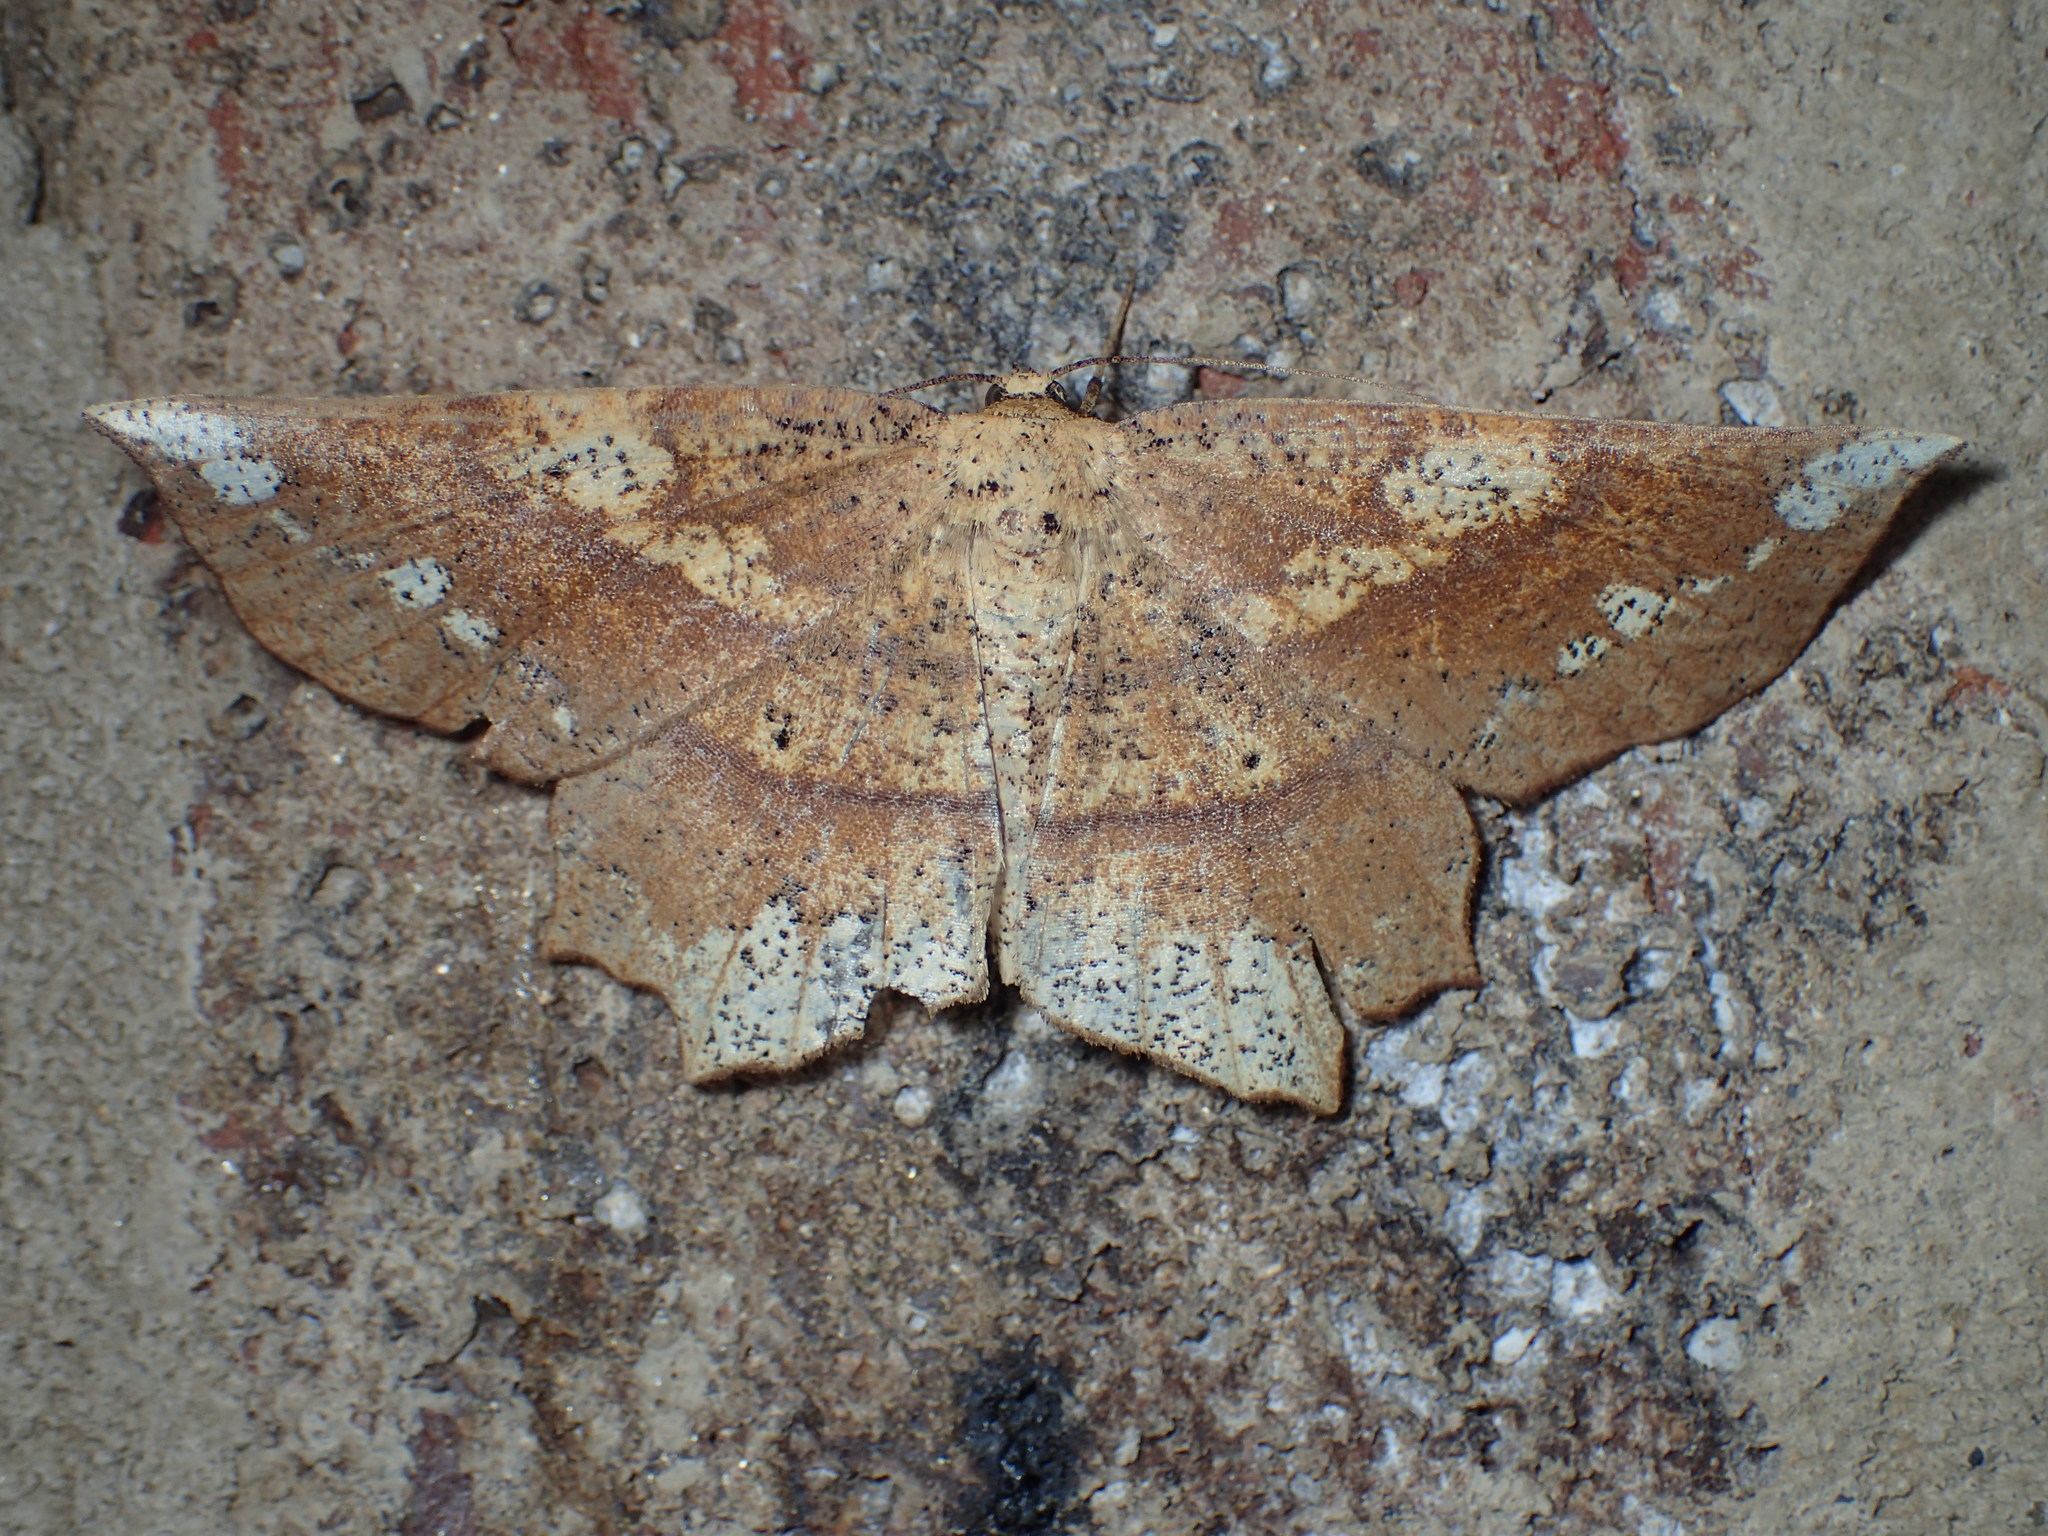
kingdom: Animalia
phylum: Arthropoda
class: Insecta
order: Lepidoptera
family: Geometridae
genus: Euchlaena
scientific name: Euchlaena amoenaria
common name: Deep yellow euchlaena
